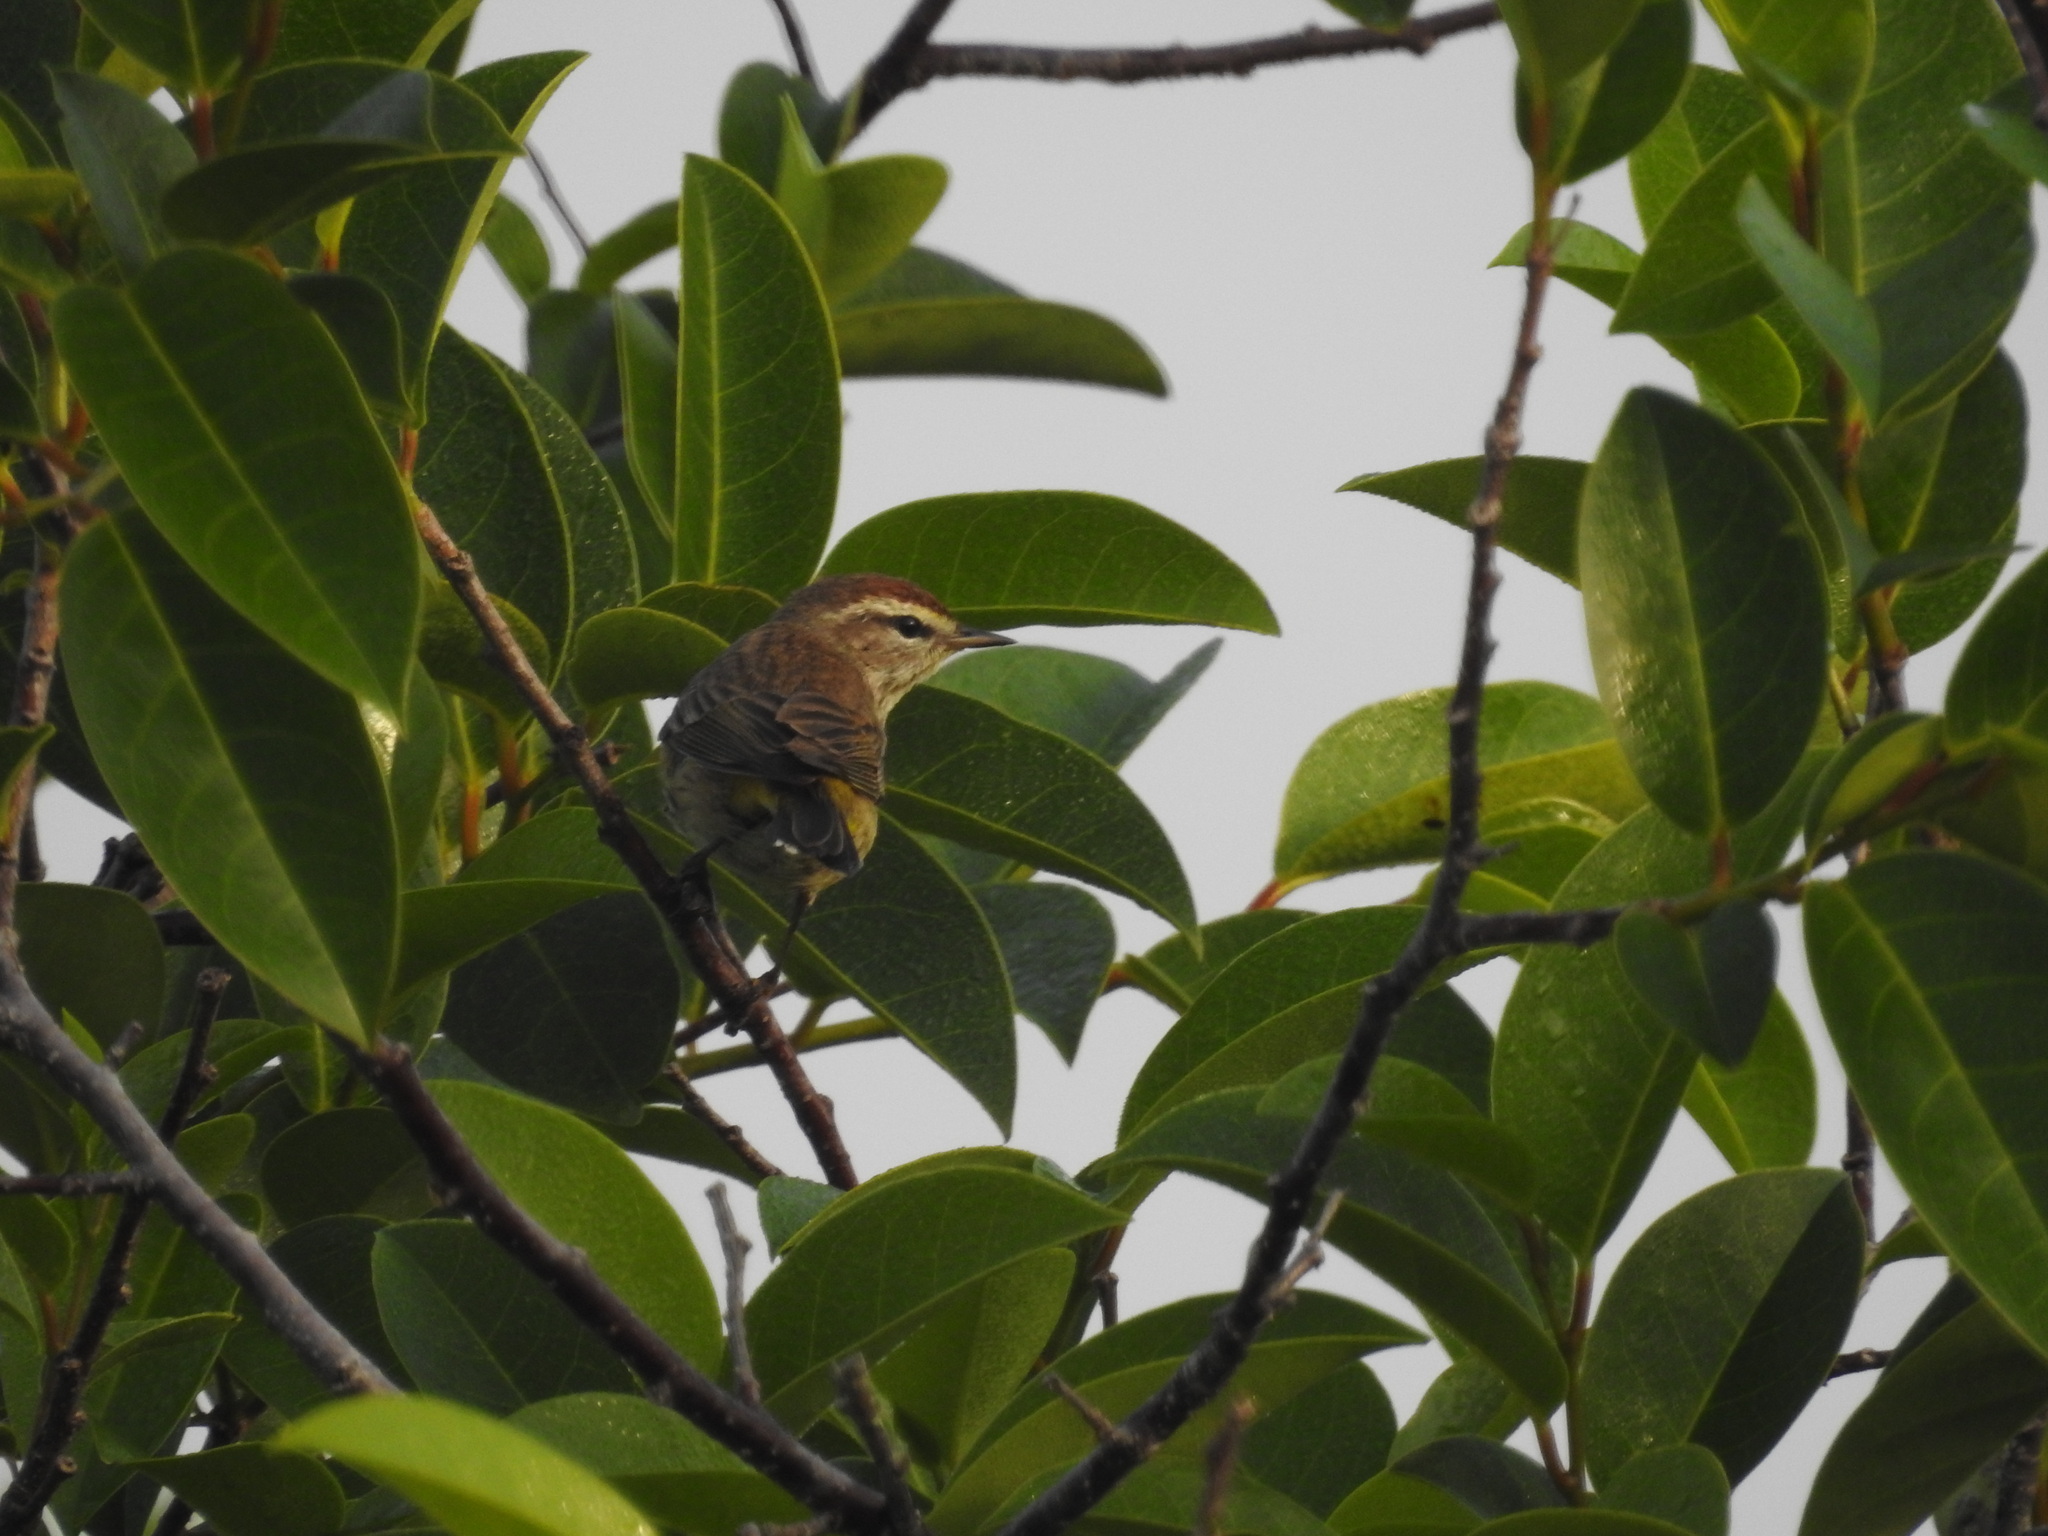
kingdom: Animalia
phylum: Chordata
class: Aves
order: Passeriformes
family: Parulidae
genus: Setophaga
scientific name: Setophaga palmarum
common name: Palm warbler
